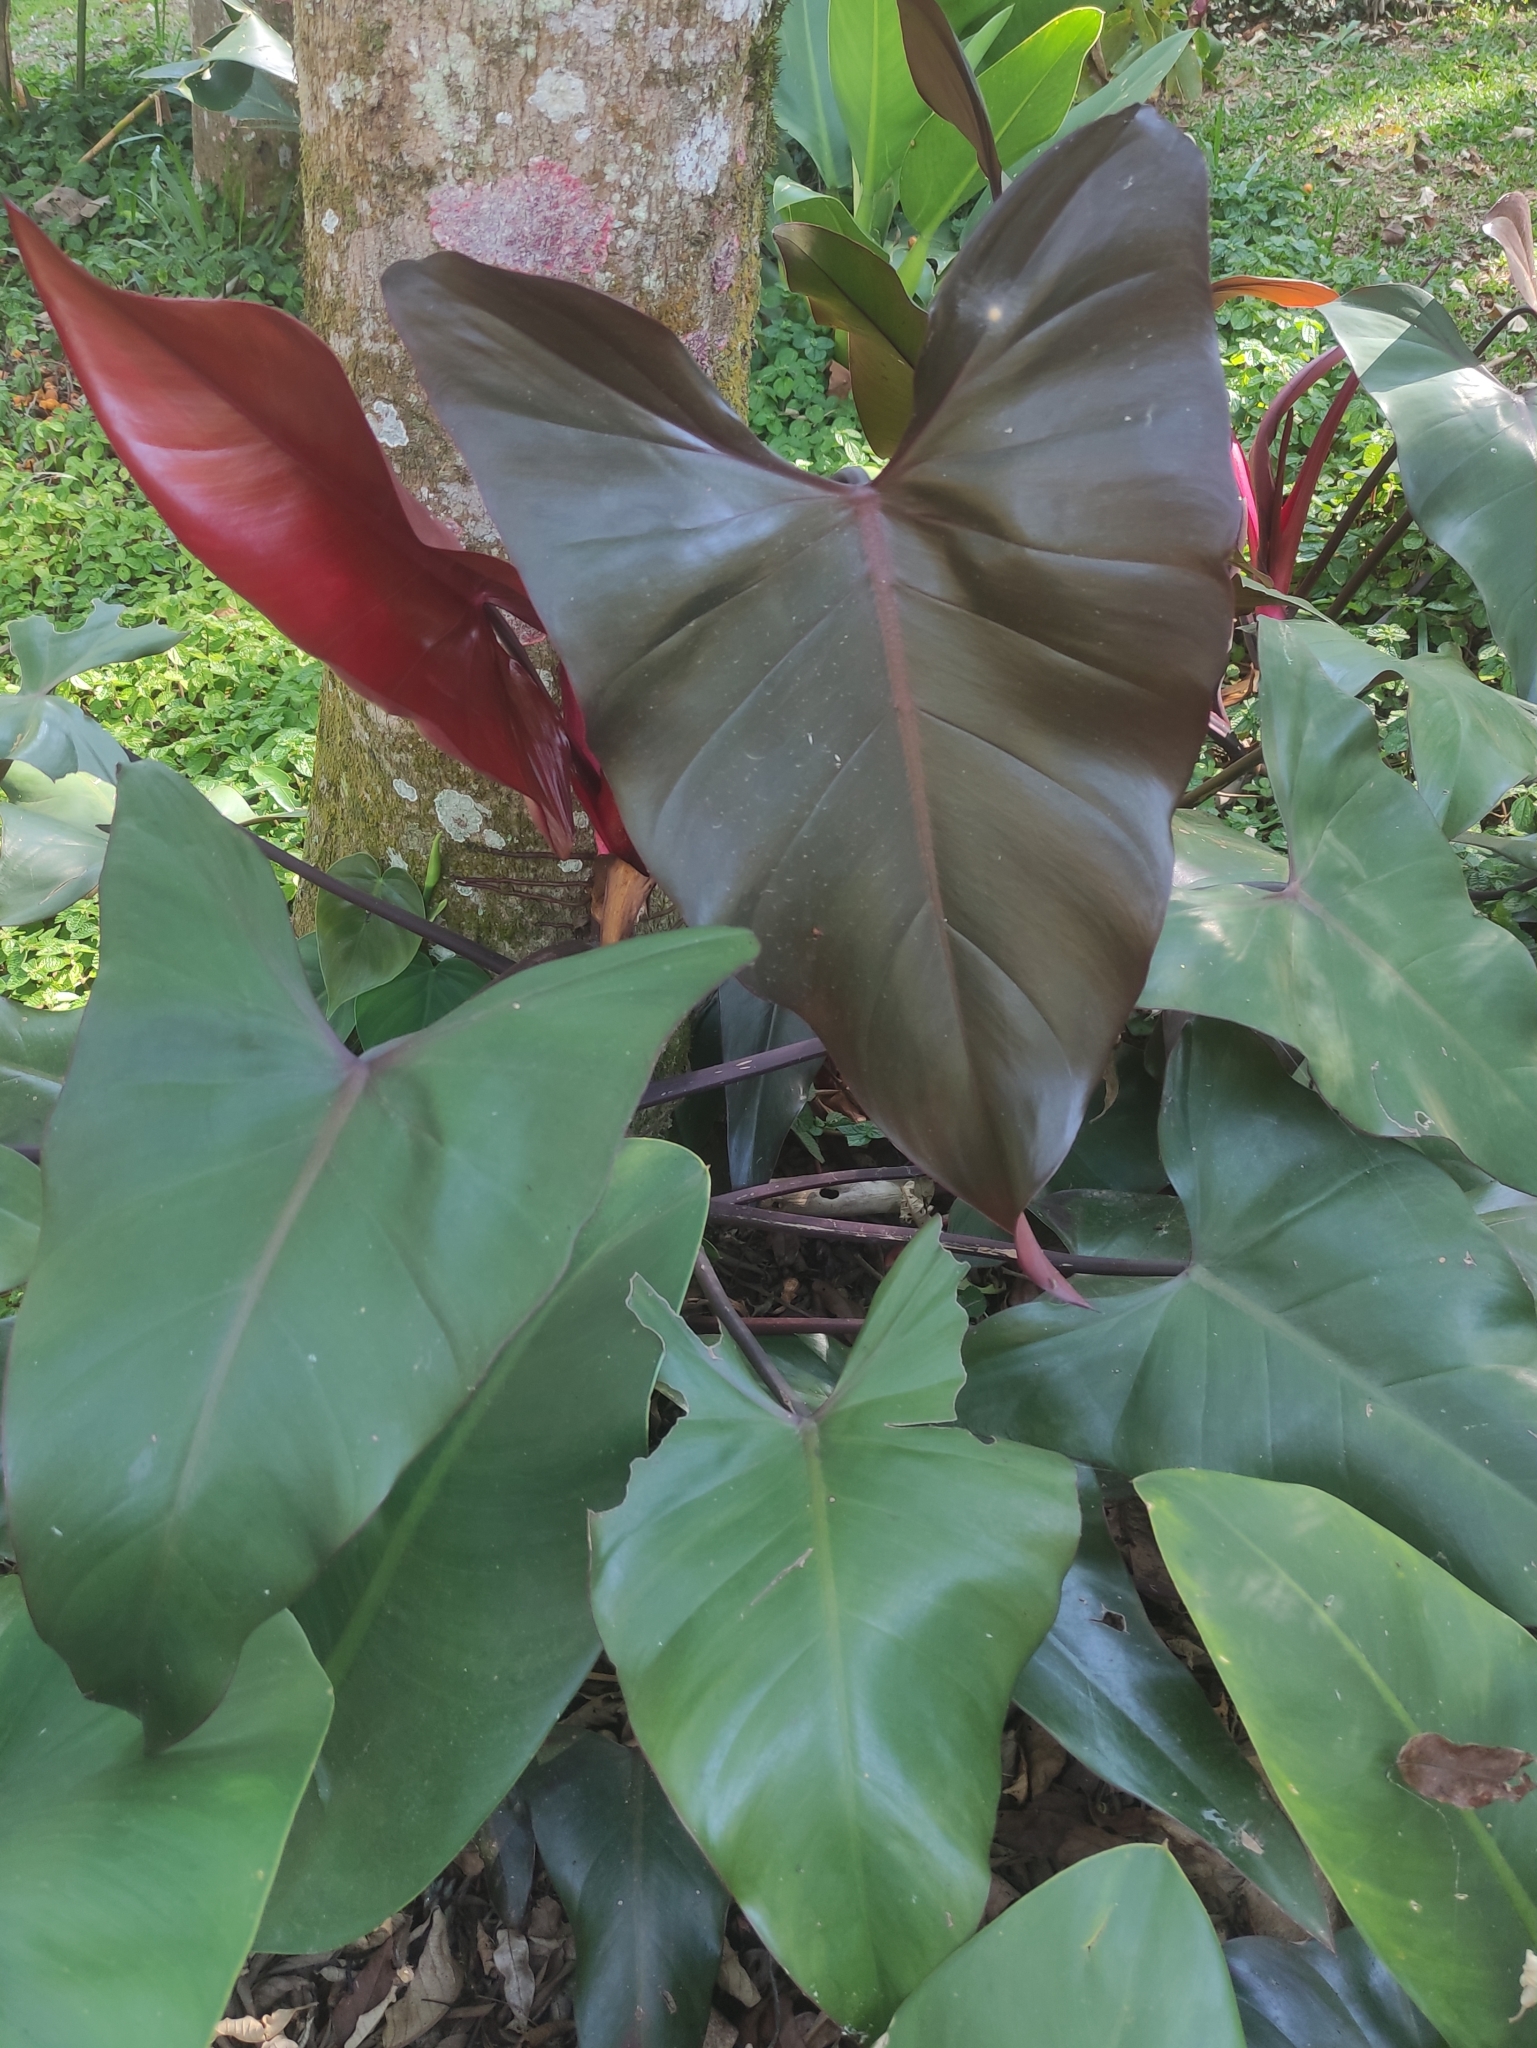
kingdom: Plantae
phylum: Tracheophyta
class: Liliopsida
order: Alismatales
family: Araceae
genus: Philodendron
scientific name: Philodendron erubescens
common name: Philodendron
